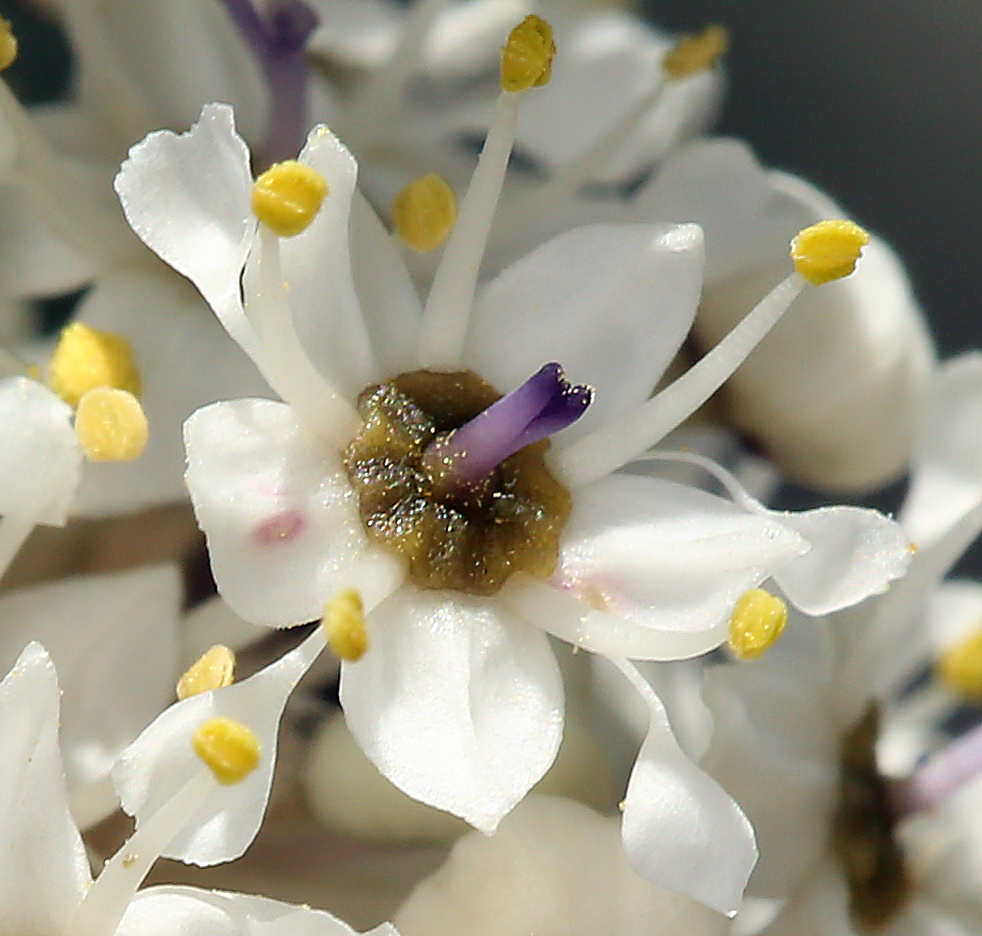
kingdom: Plantae
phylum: Tracheophyta
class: Magnoliopsida
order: Rosales
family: Rhamnaceae
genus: Ceanothus
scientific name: Ceanothus pauciflorus
